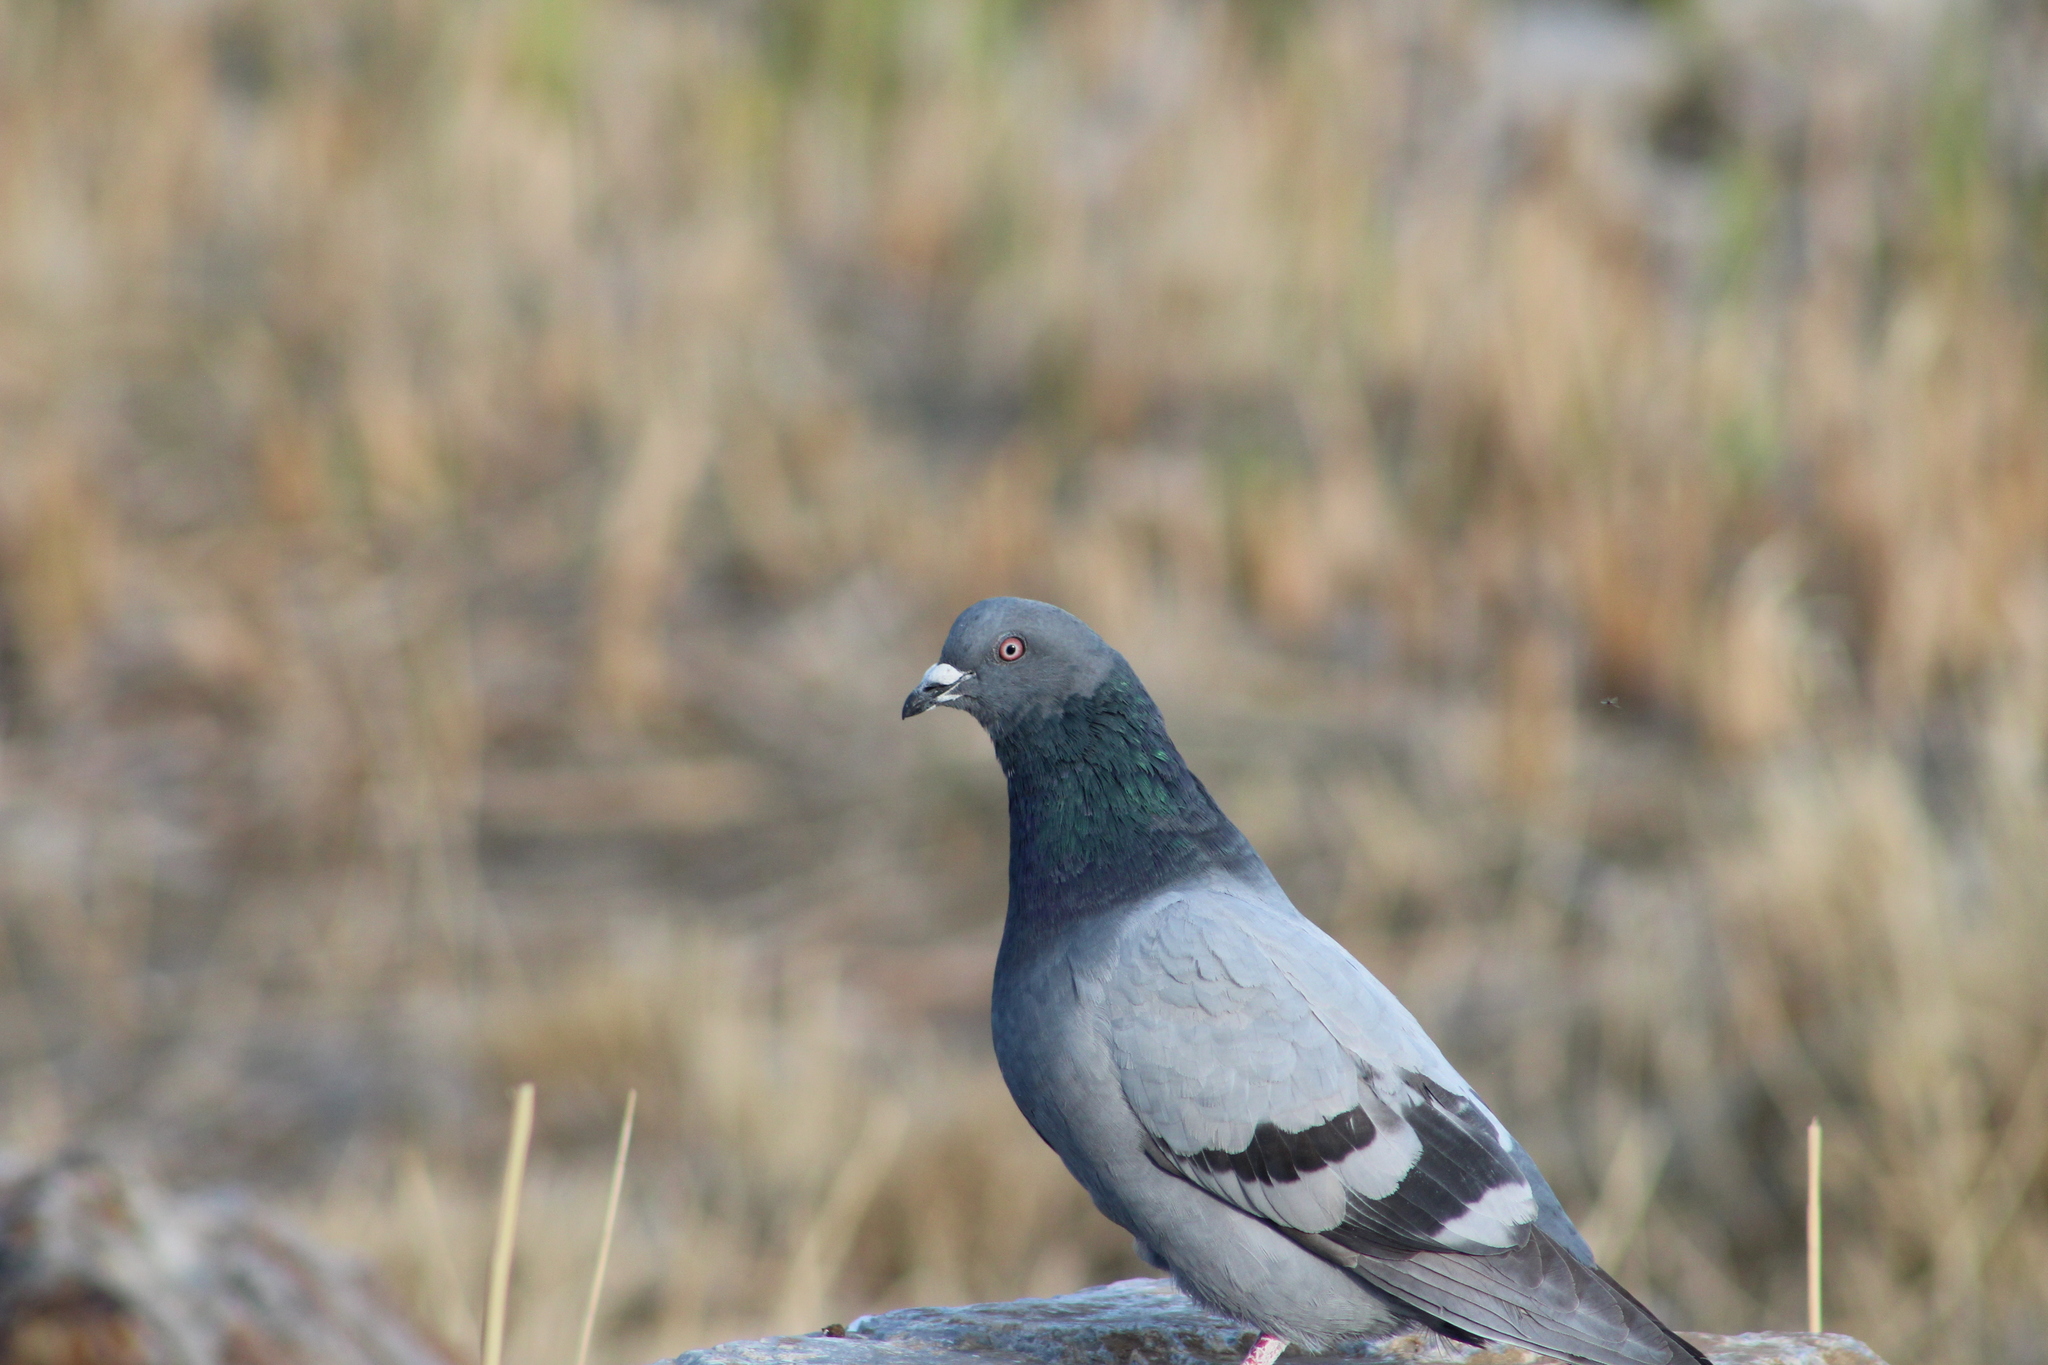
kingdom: Animalia
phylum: Chordata
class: Aves
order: Columbiformes
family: Columbidae
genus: Columba
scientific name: Columba livia
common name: Rock pigeon
